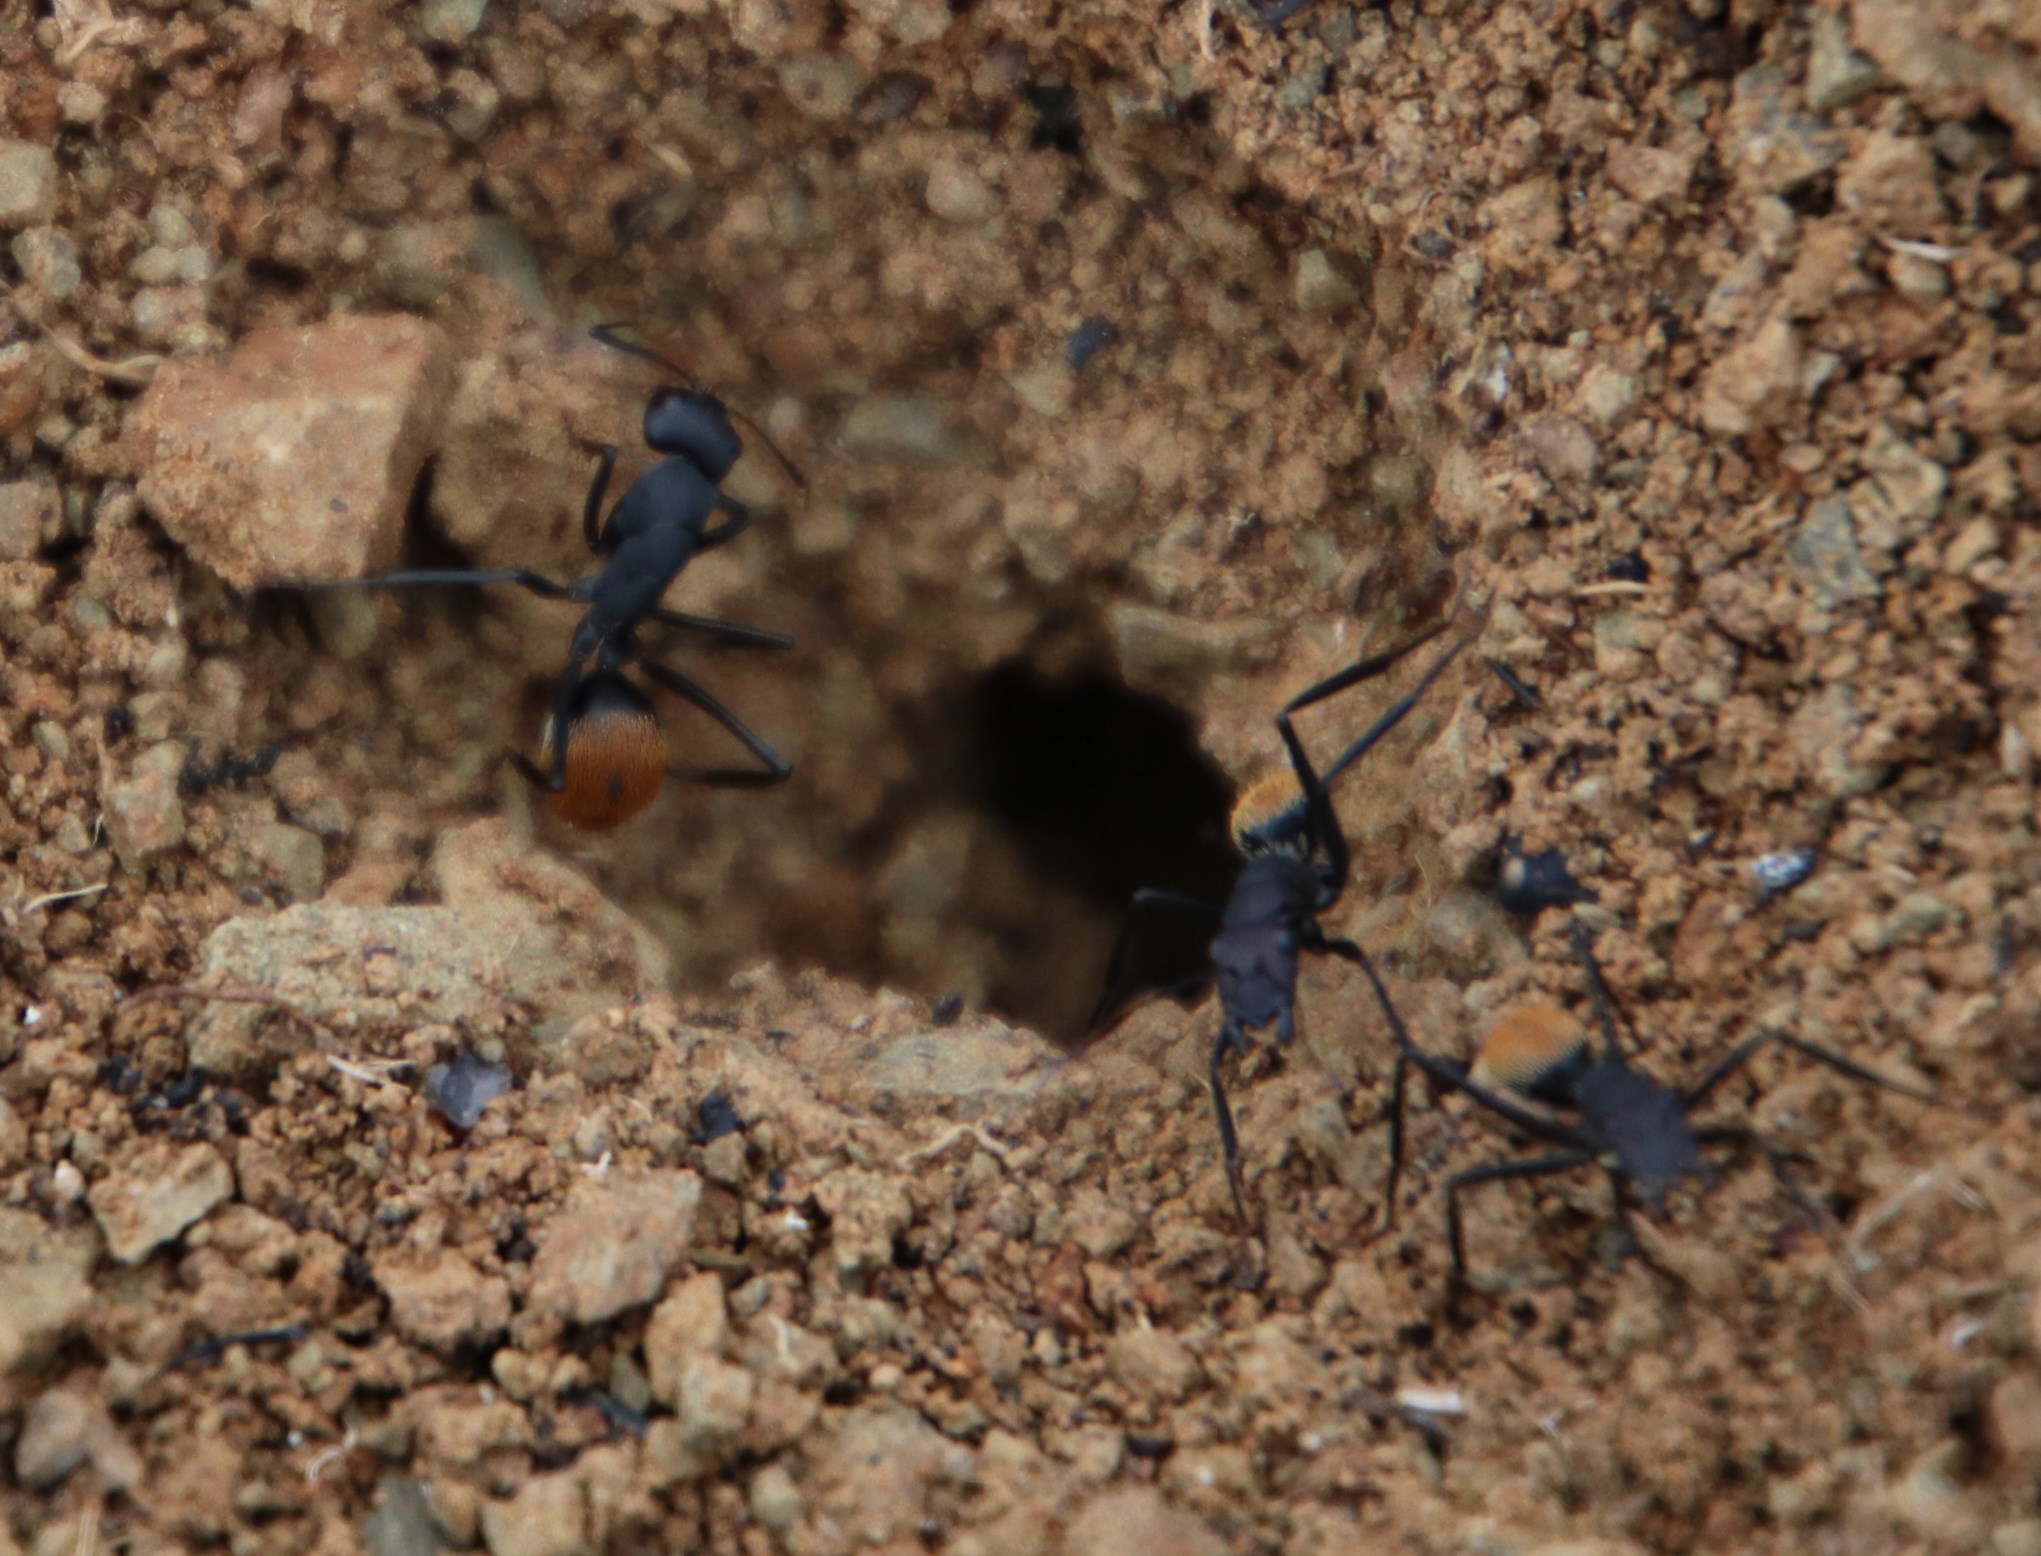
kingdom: Animalia
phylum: Arthropoda
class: Insecta
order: Hymenoptera
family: Formicidae
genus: Camponotus
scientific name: Camponotus fulvopilosus
